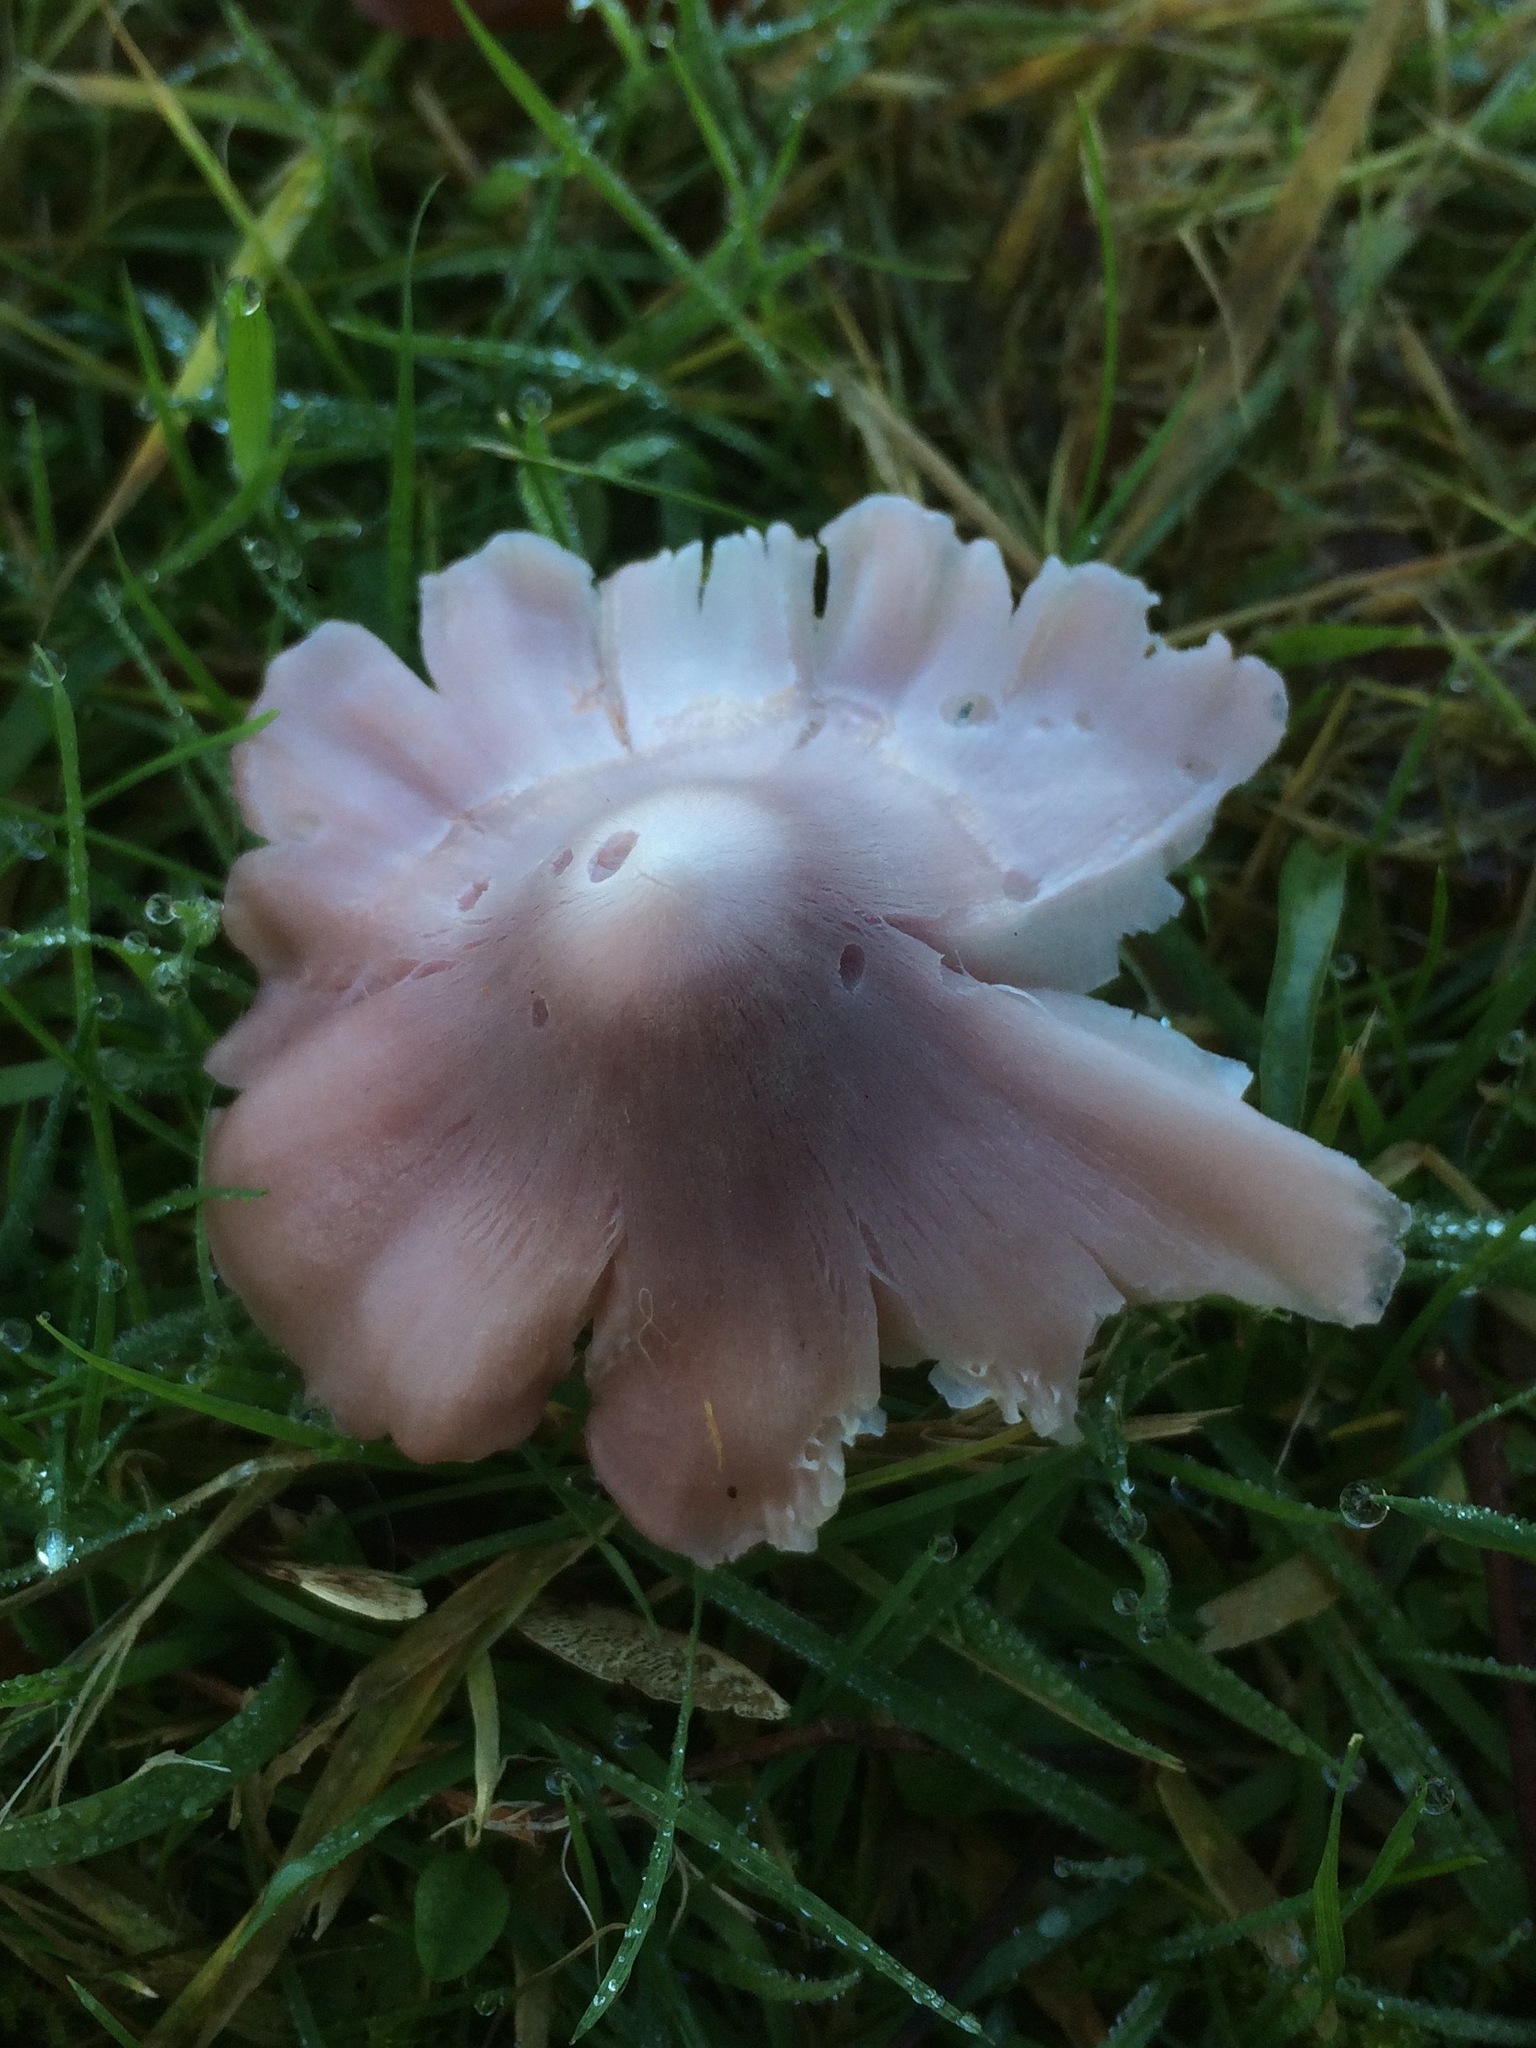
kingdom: Fungi
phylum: Basidiomycota
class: Agaricomycetes
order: Agaricales
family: Hygrophoraceae
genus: Porpolomopsis
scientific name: Porpolomopsis calyptriformis
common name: Pink waxcap
